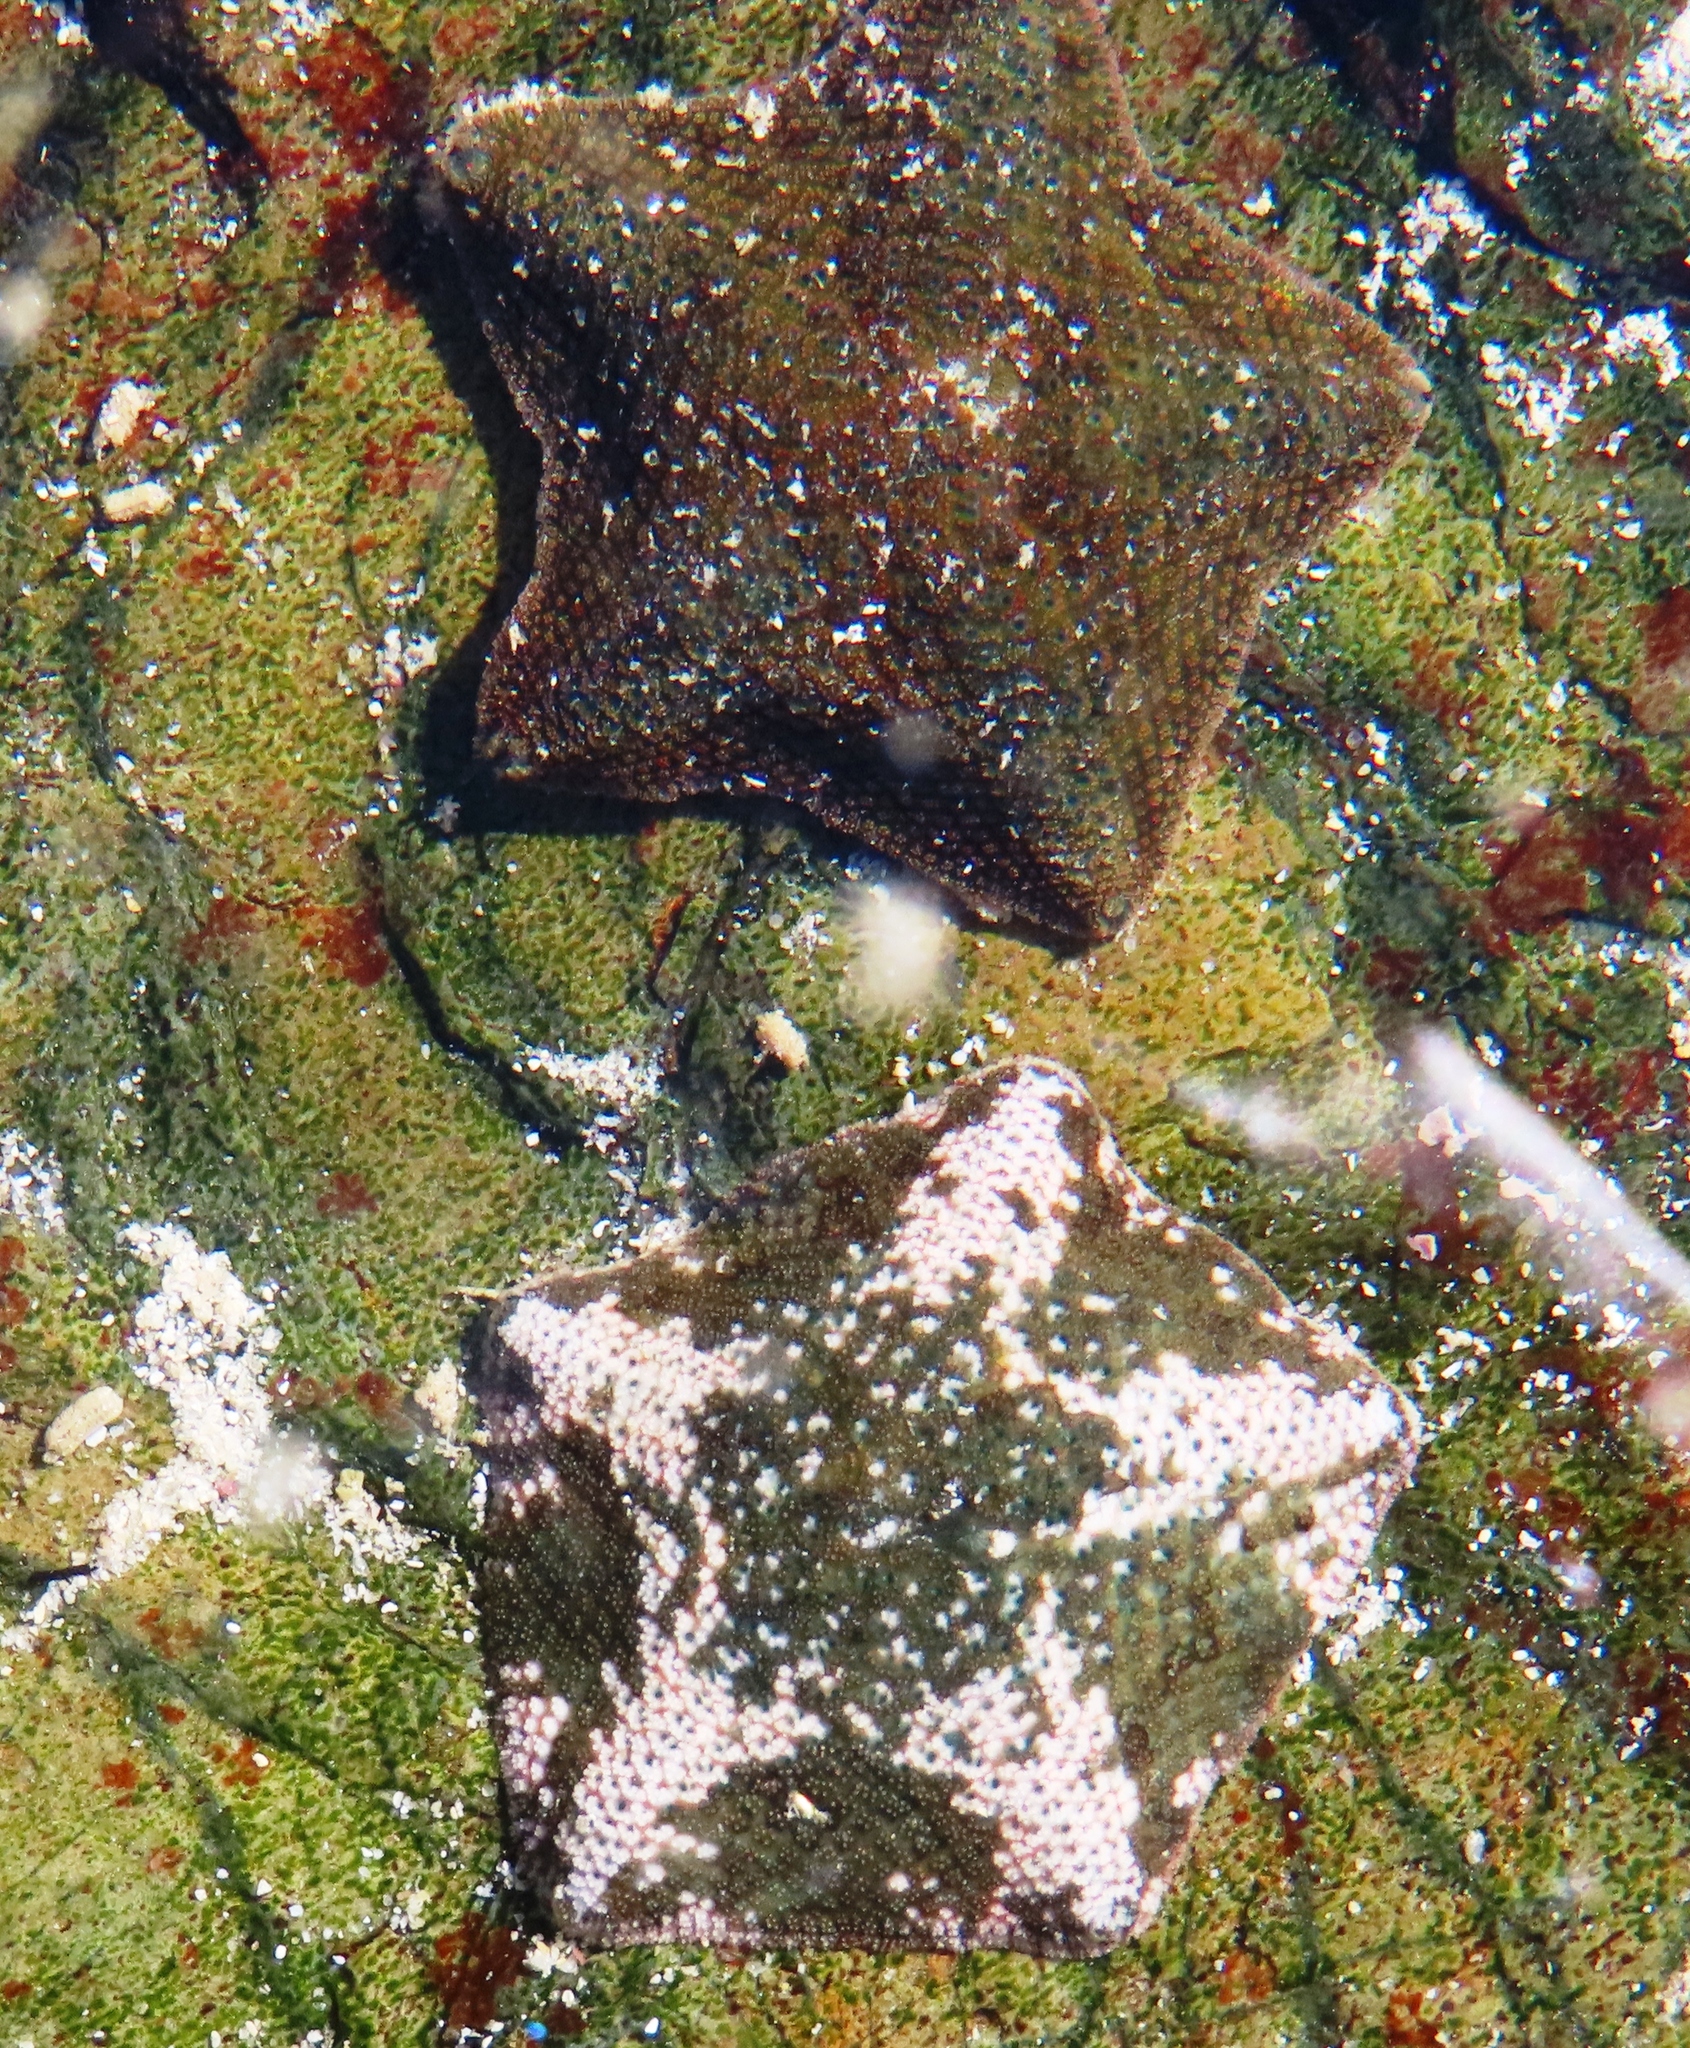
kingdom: Animalia
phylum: Echinodermata
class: Asteroidea
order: Valvatida
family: Asterinidae
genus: Parvulastra
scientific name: Parvulastra exigua
